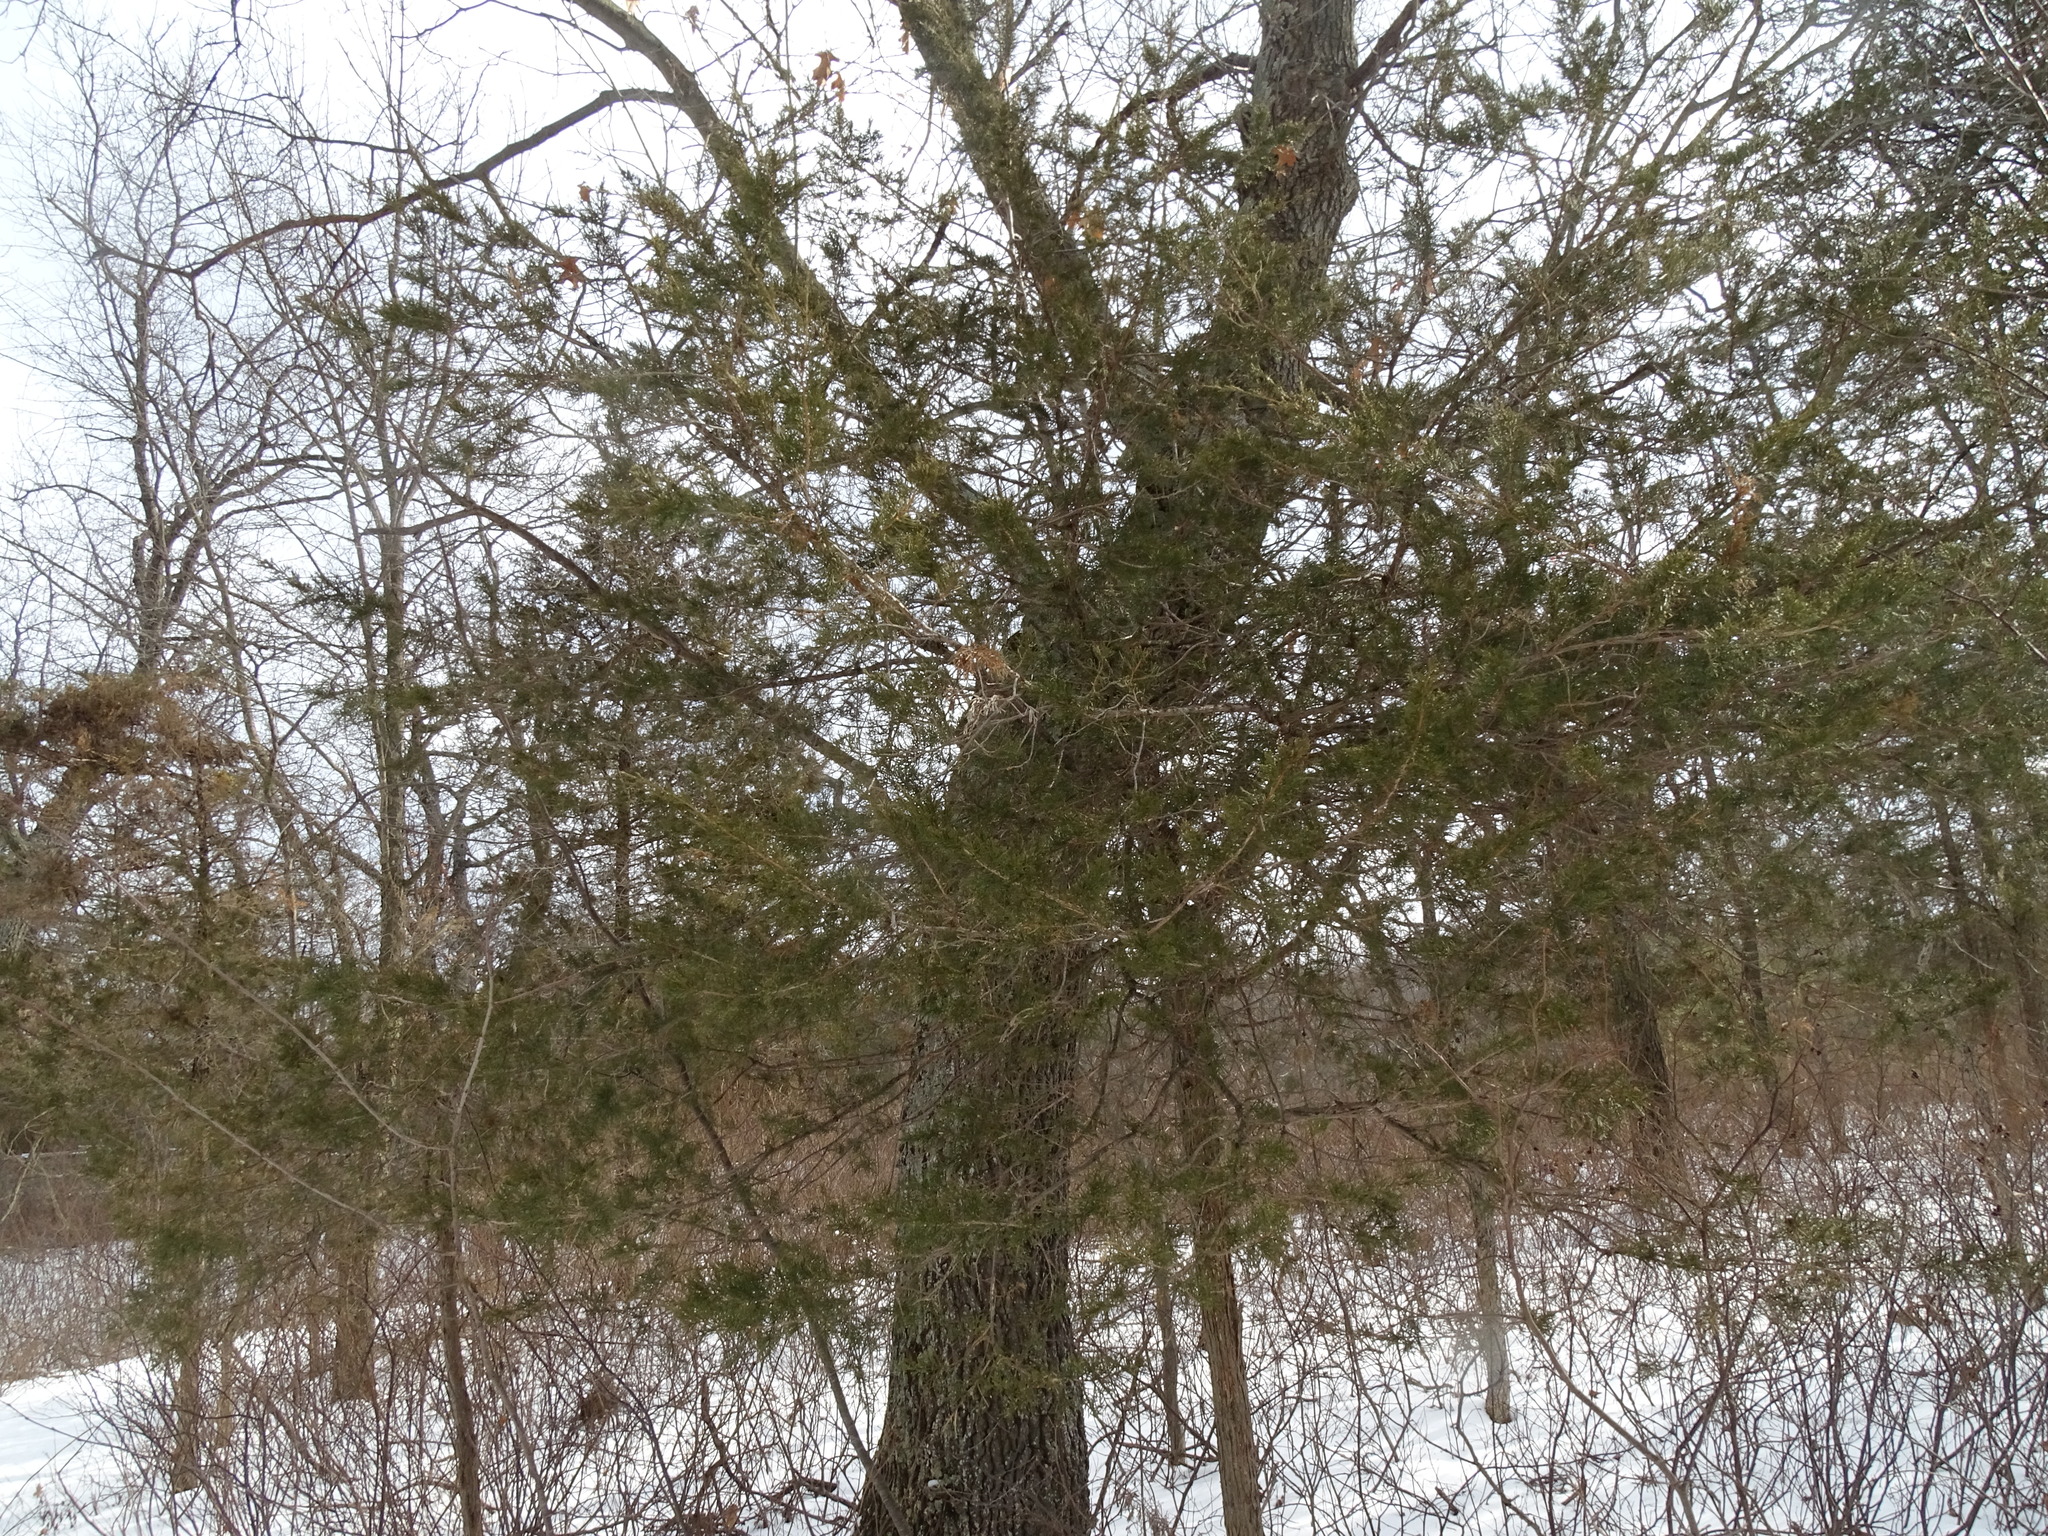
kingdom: Plantae
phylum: Tracheophyta
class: Pinopsida
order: Pinales
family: Cupressaceae
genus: Juniperus
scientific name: Juniperus virginiana
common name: Red juniper
